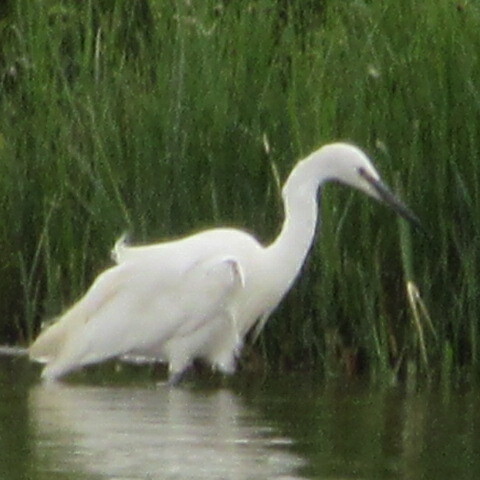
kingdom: Animalia
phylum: Chordata
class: Aves
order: Pelecaniformes
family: Ardeidae
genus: Egretta
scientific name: Egretta garzetta
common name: Little egret
